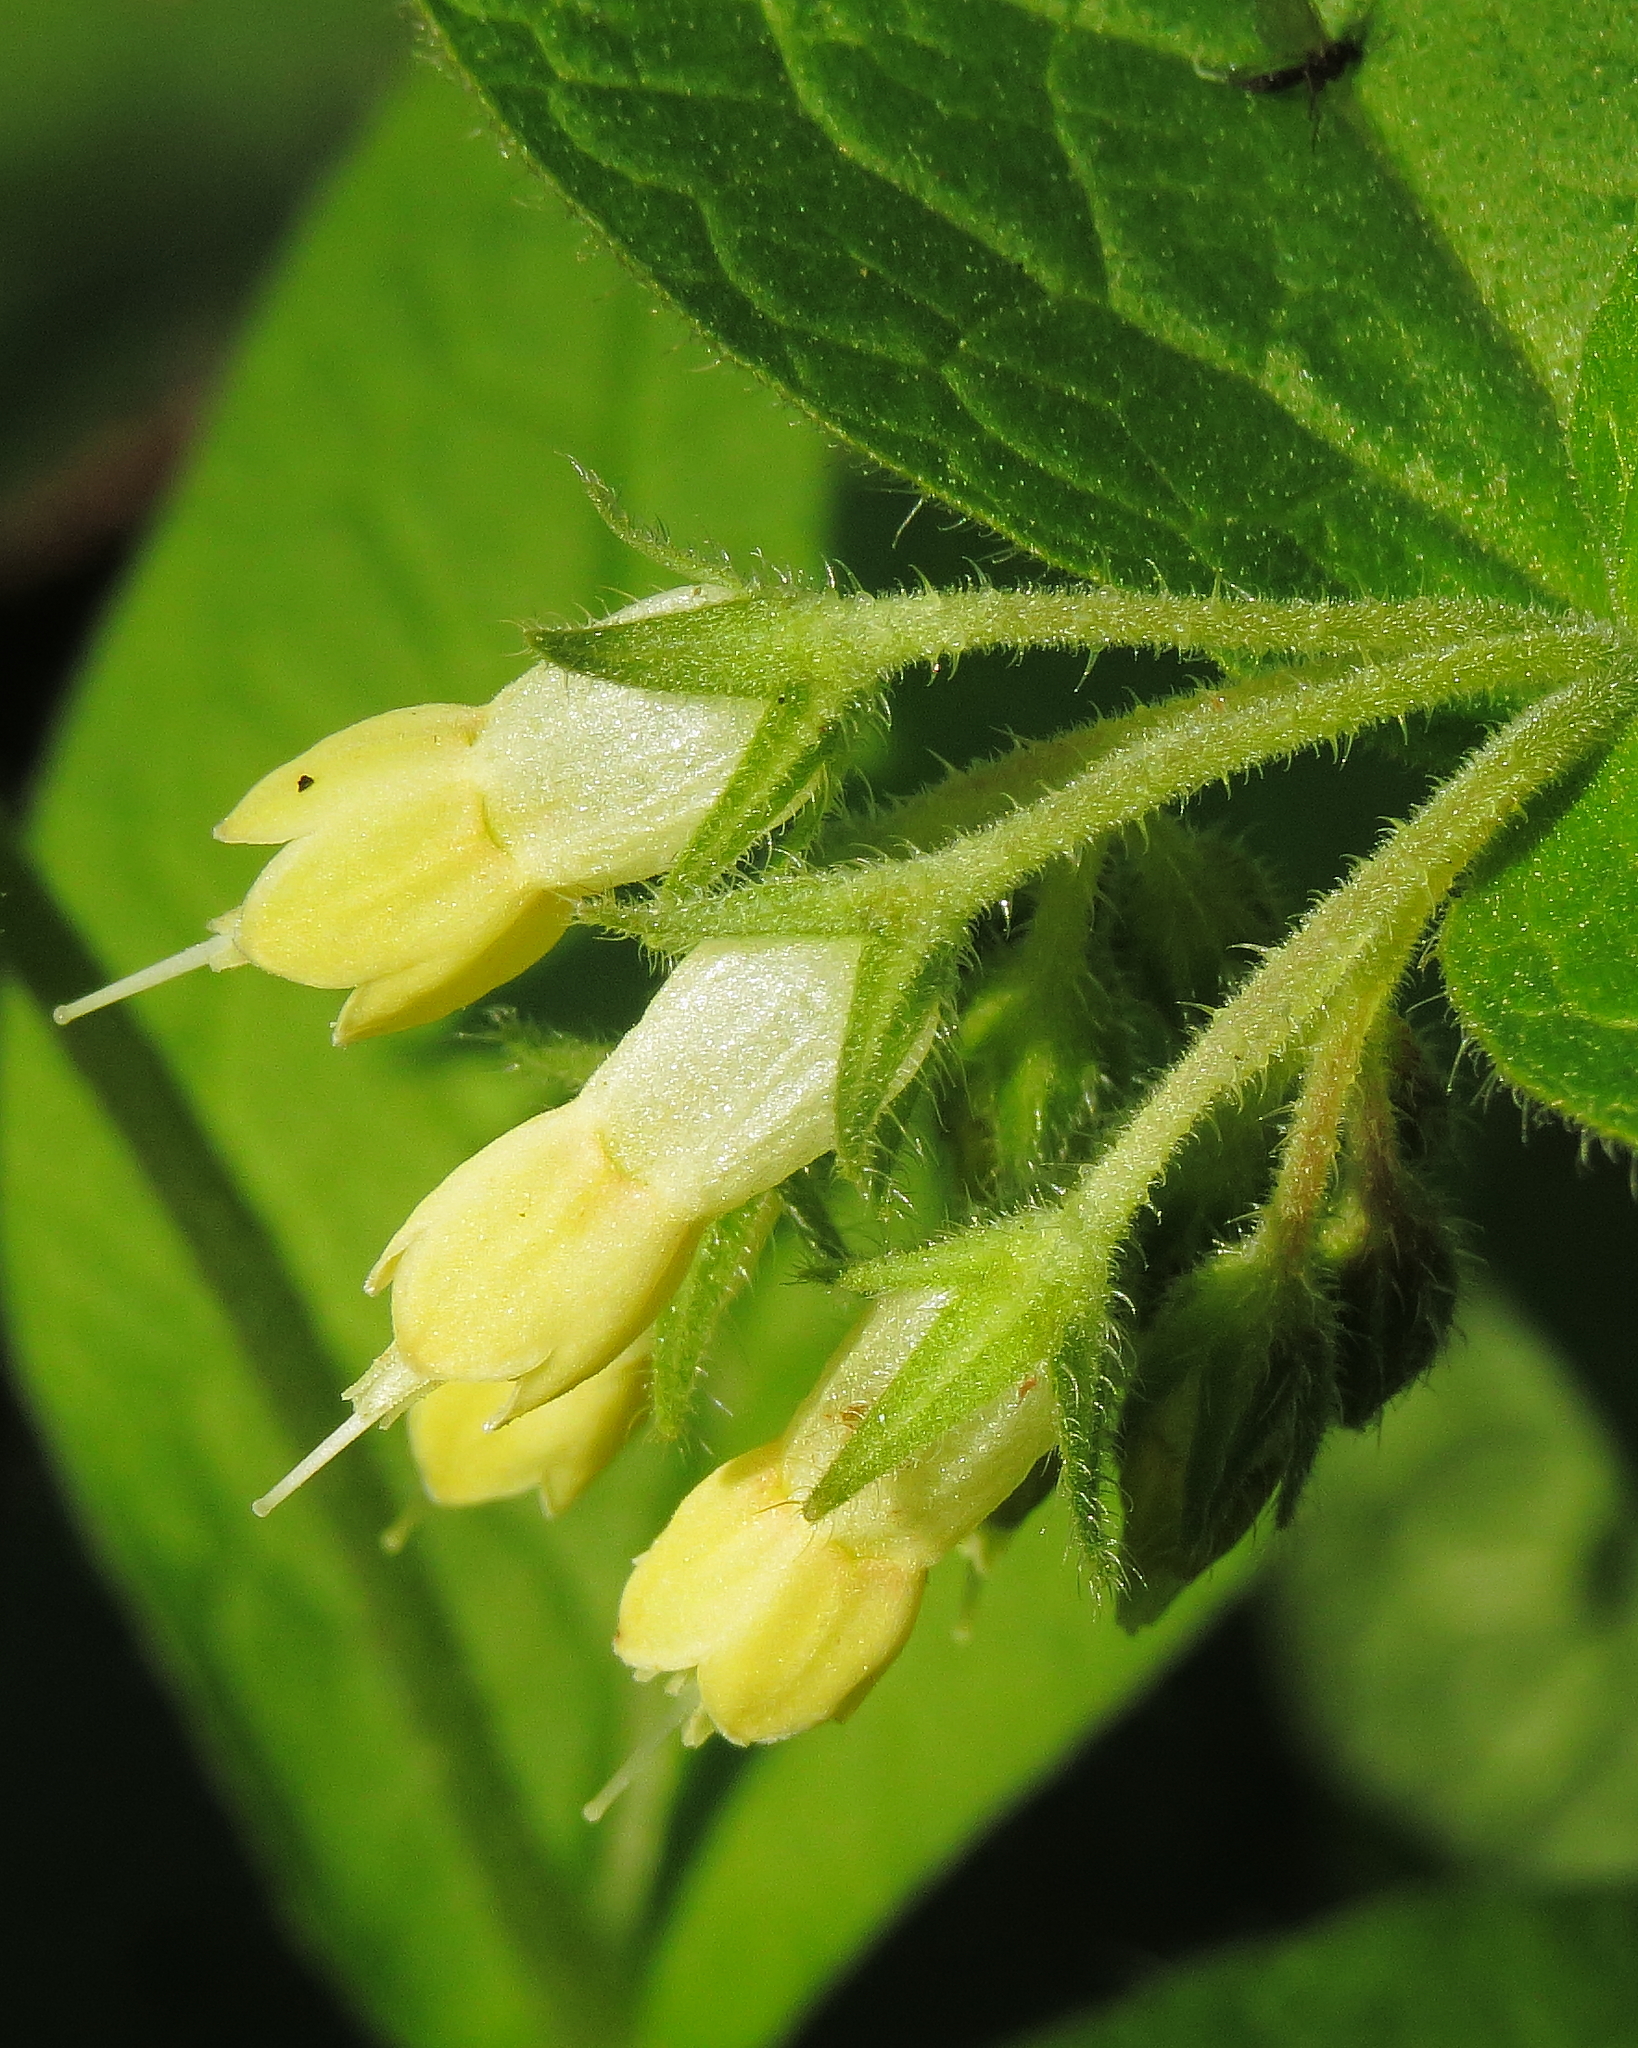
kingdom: Plantae
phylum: Tracheophyta
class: Magnoliopsida
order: Boraginales
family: Boraginaceae
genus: Symphytum
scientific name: Symphytum bulbosum
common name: Bulbous comfrey
